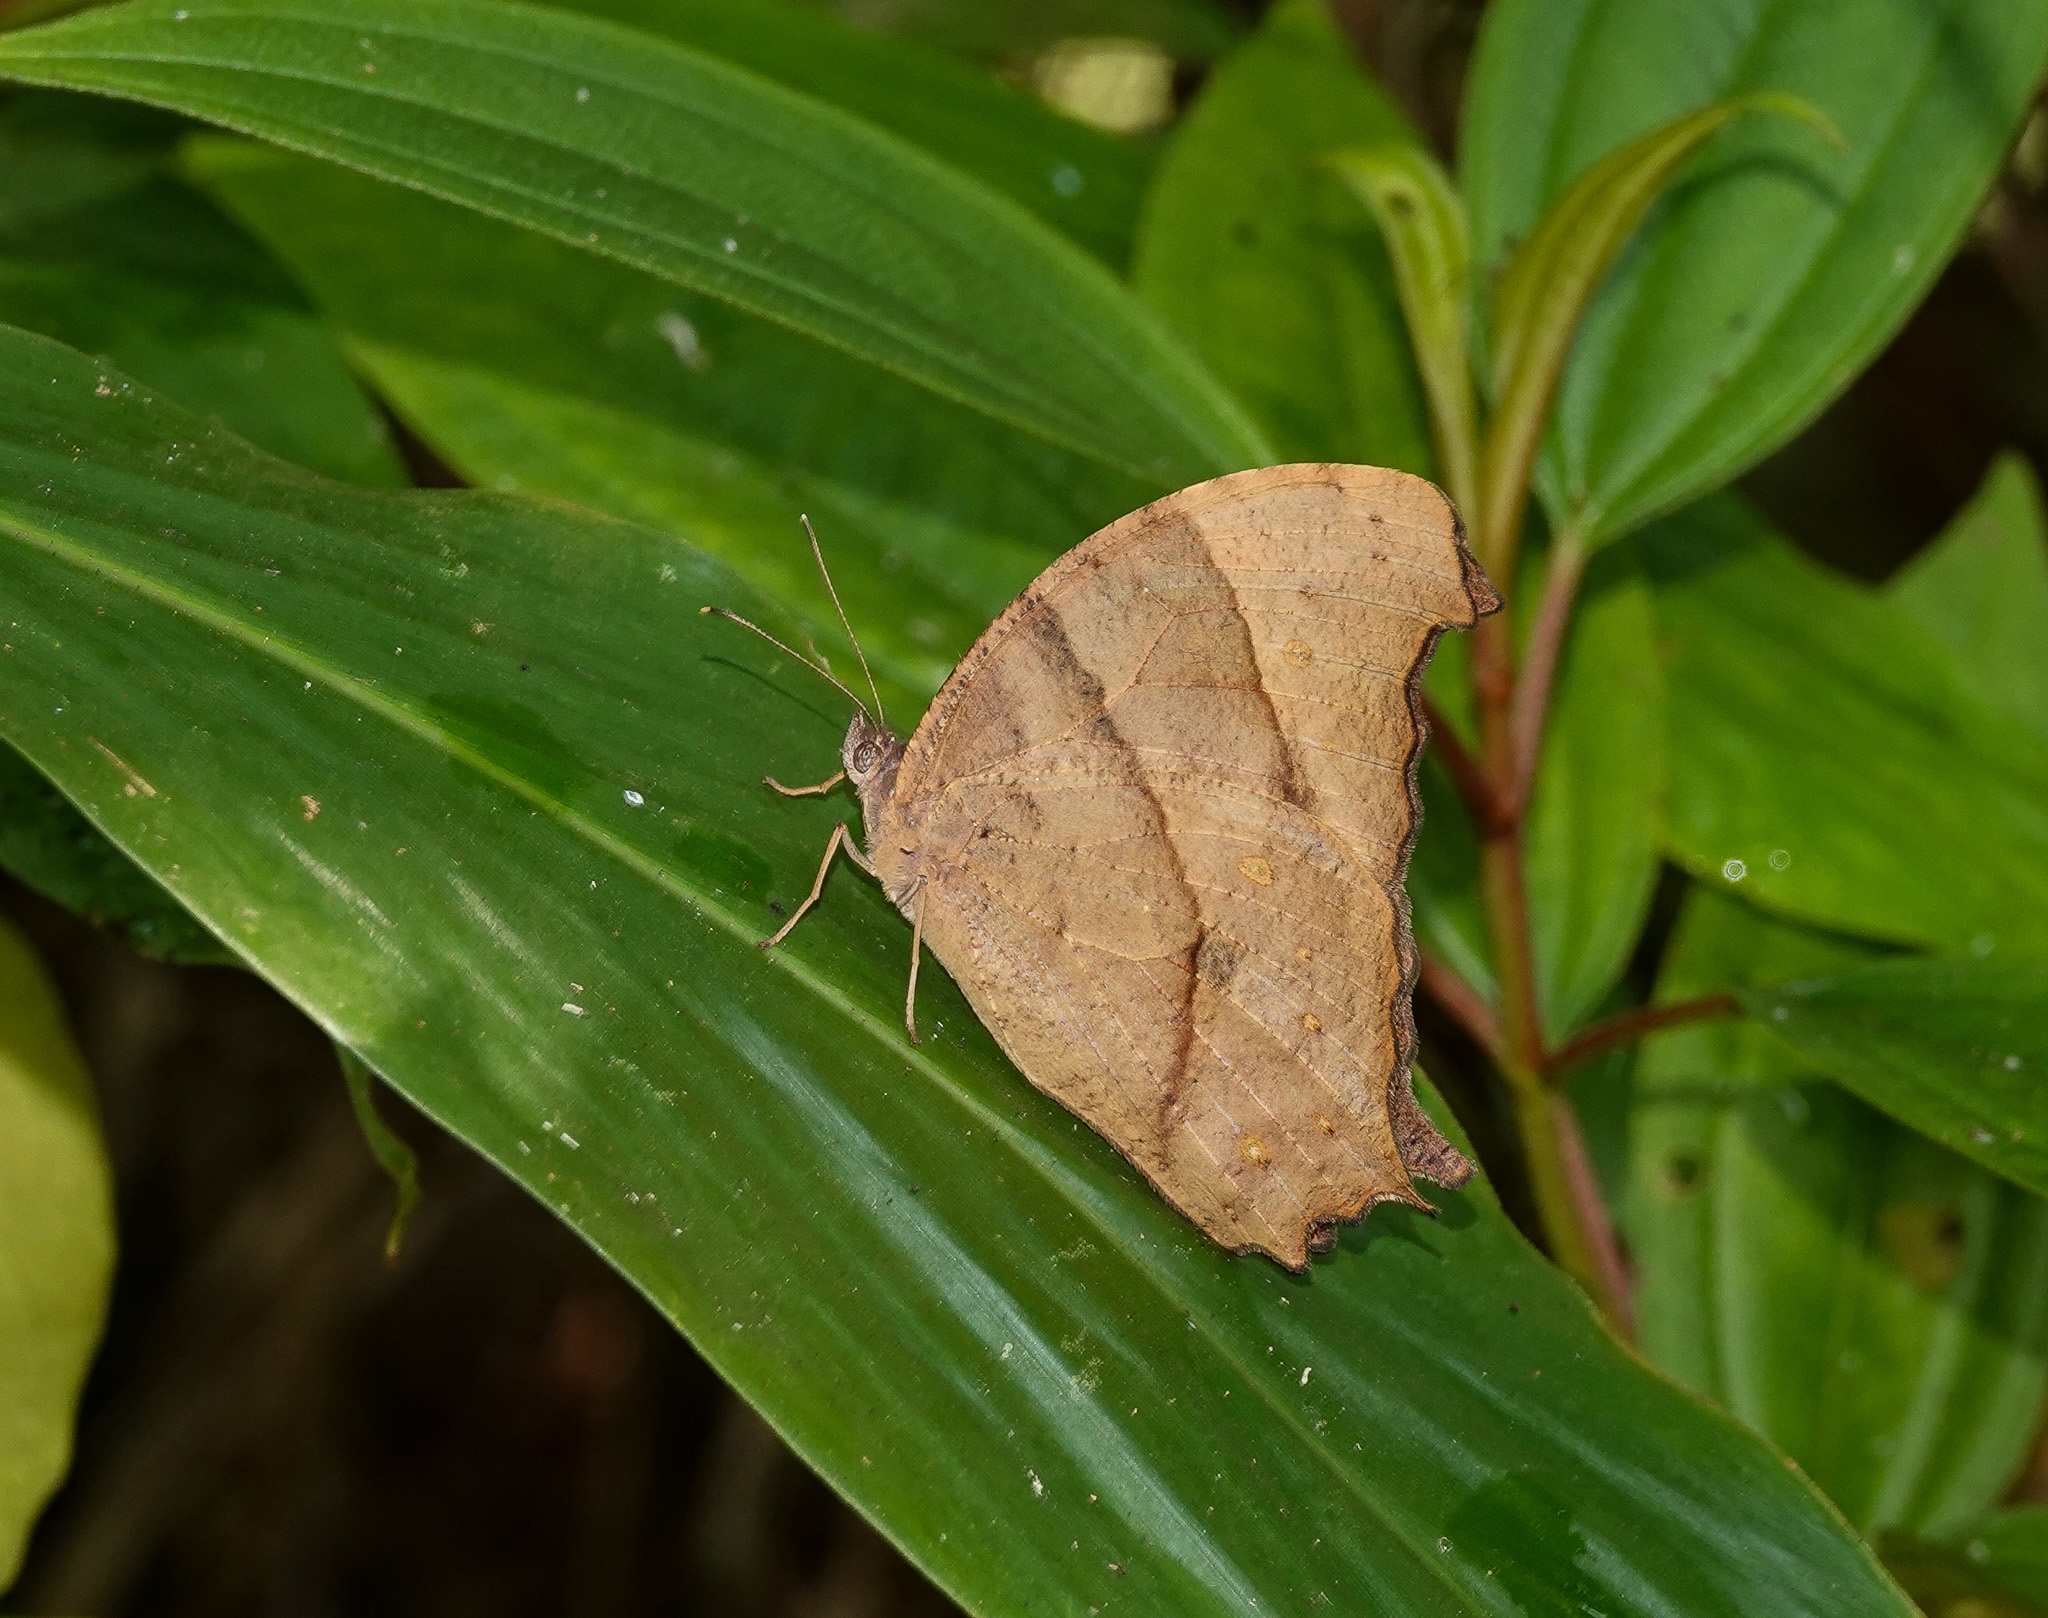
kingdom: Animalia
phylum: Arthropoda
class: Insecta
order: Lepidoptera
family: Nymphalidae
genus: Melanitis
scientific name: Melanitis zitenius
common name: Great evening brown
